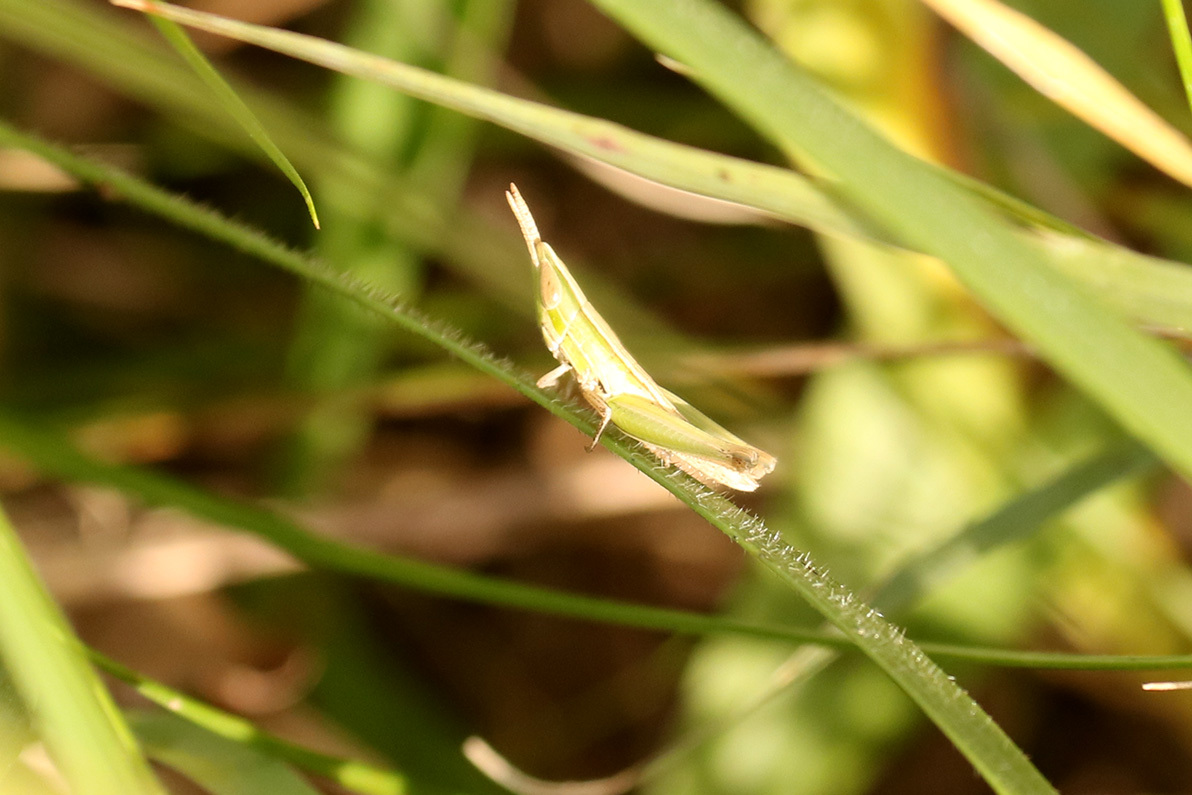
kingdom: Animalia
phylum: Arthropoda
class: Insecta
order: Orthoptera
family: Acrididae
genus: Sinipta
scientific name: Sinipta dalmani
